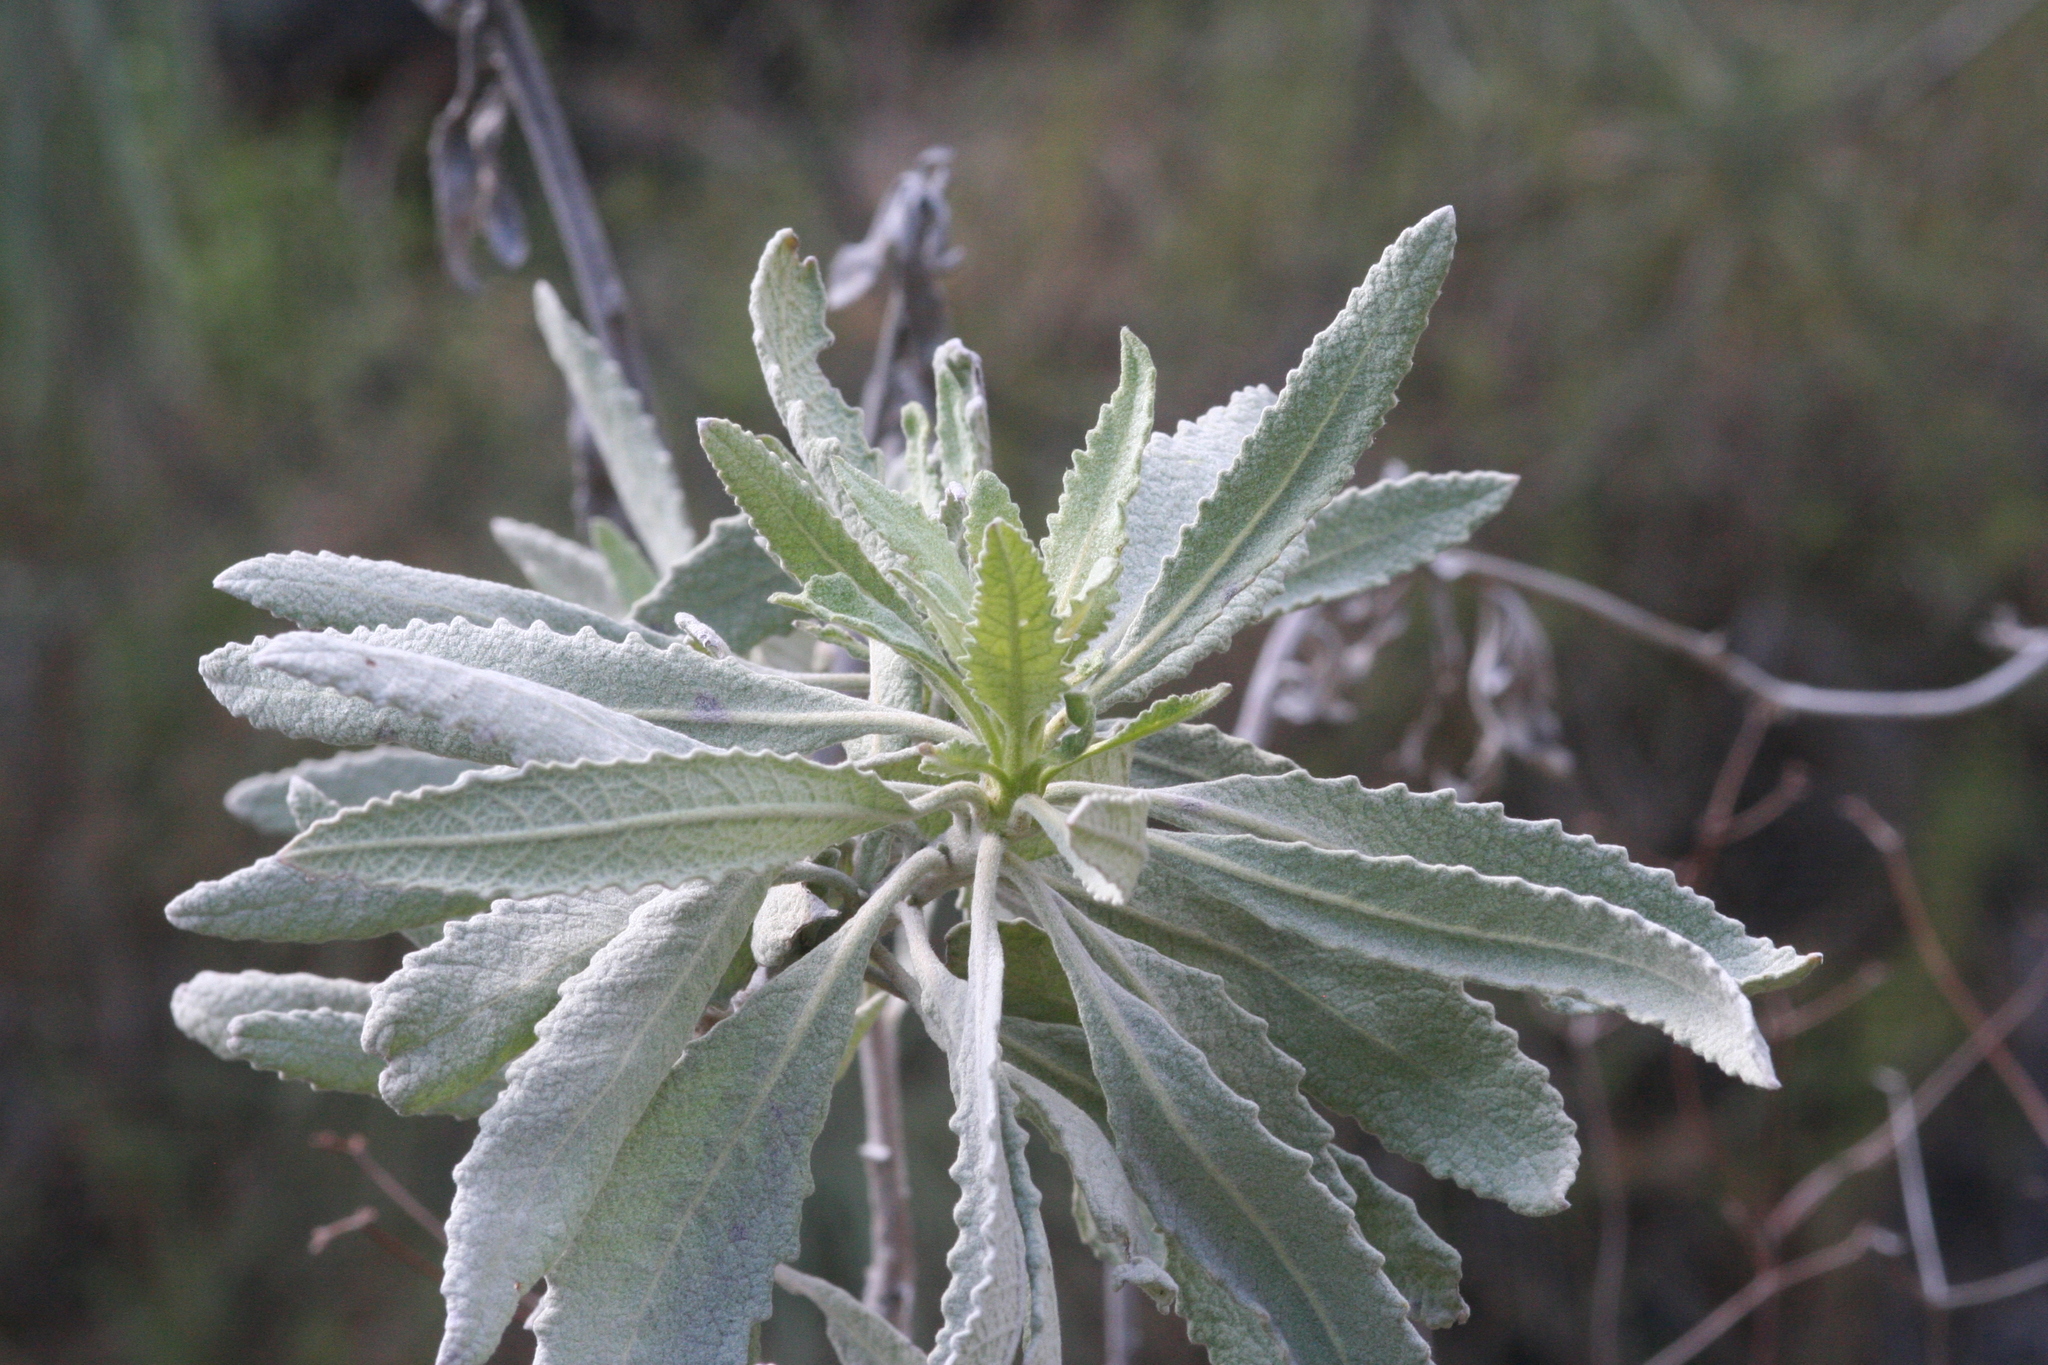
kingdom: Plantae
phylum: Tracheophyta
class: Magnoliopsida
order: Boraginales
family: Namaceae
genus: Eriodictyon
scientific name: Eriodictyon tomentosum
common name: Woolly yerba-santa
